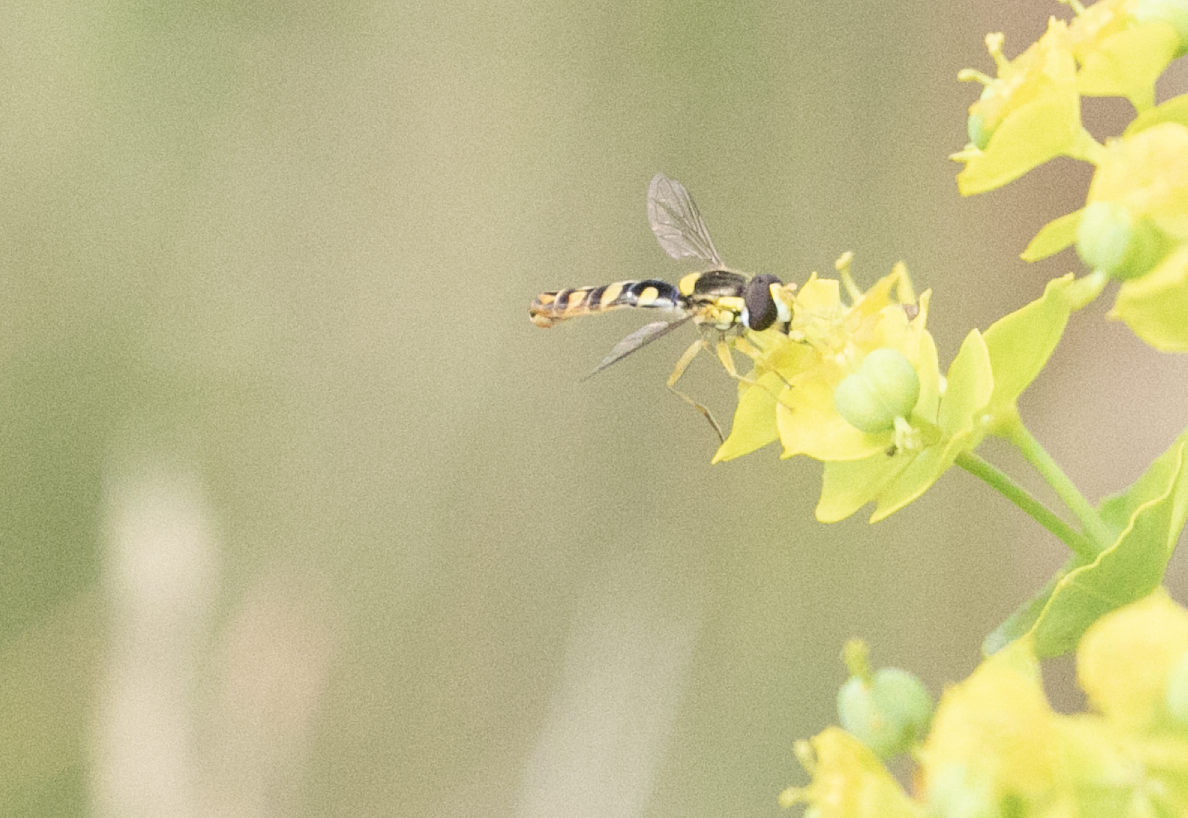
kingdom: Animalia
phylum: Arthropoda
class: Insecta
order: Diptera
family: Syrphidae
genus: Sphaerophoria
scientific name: Sphaerophoria scripta
